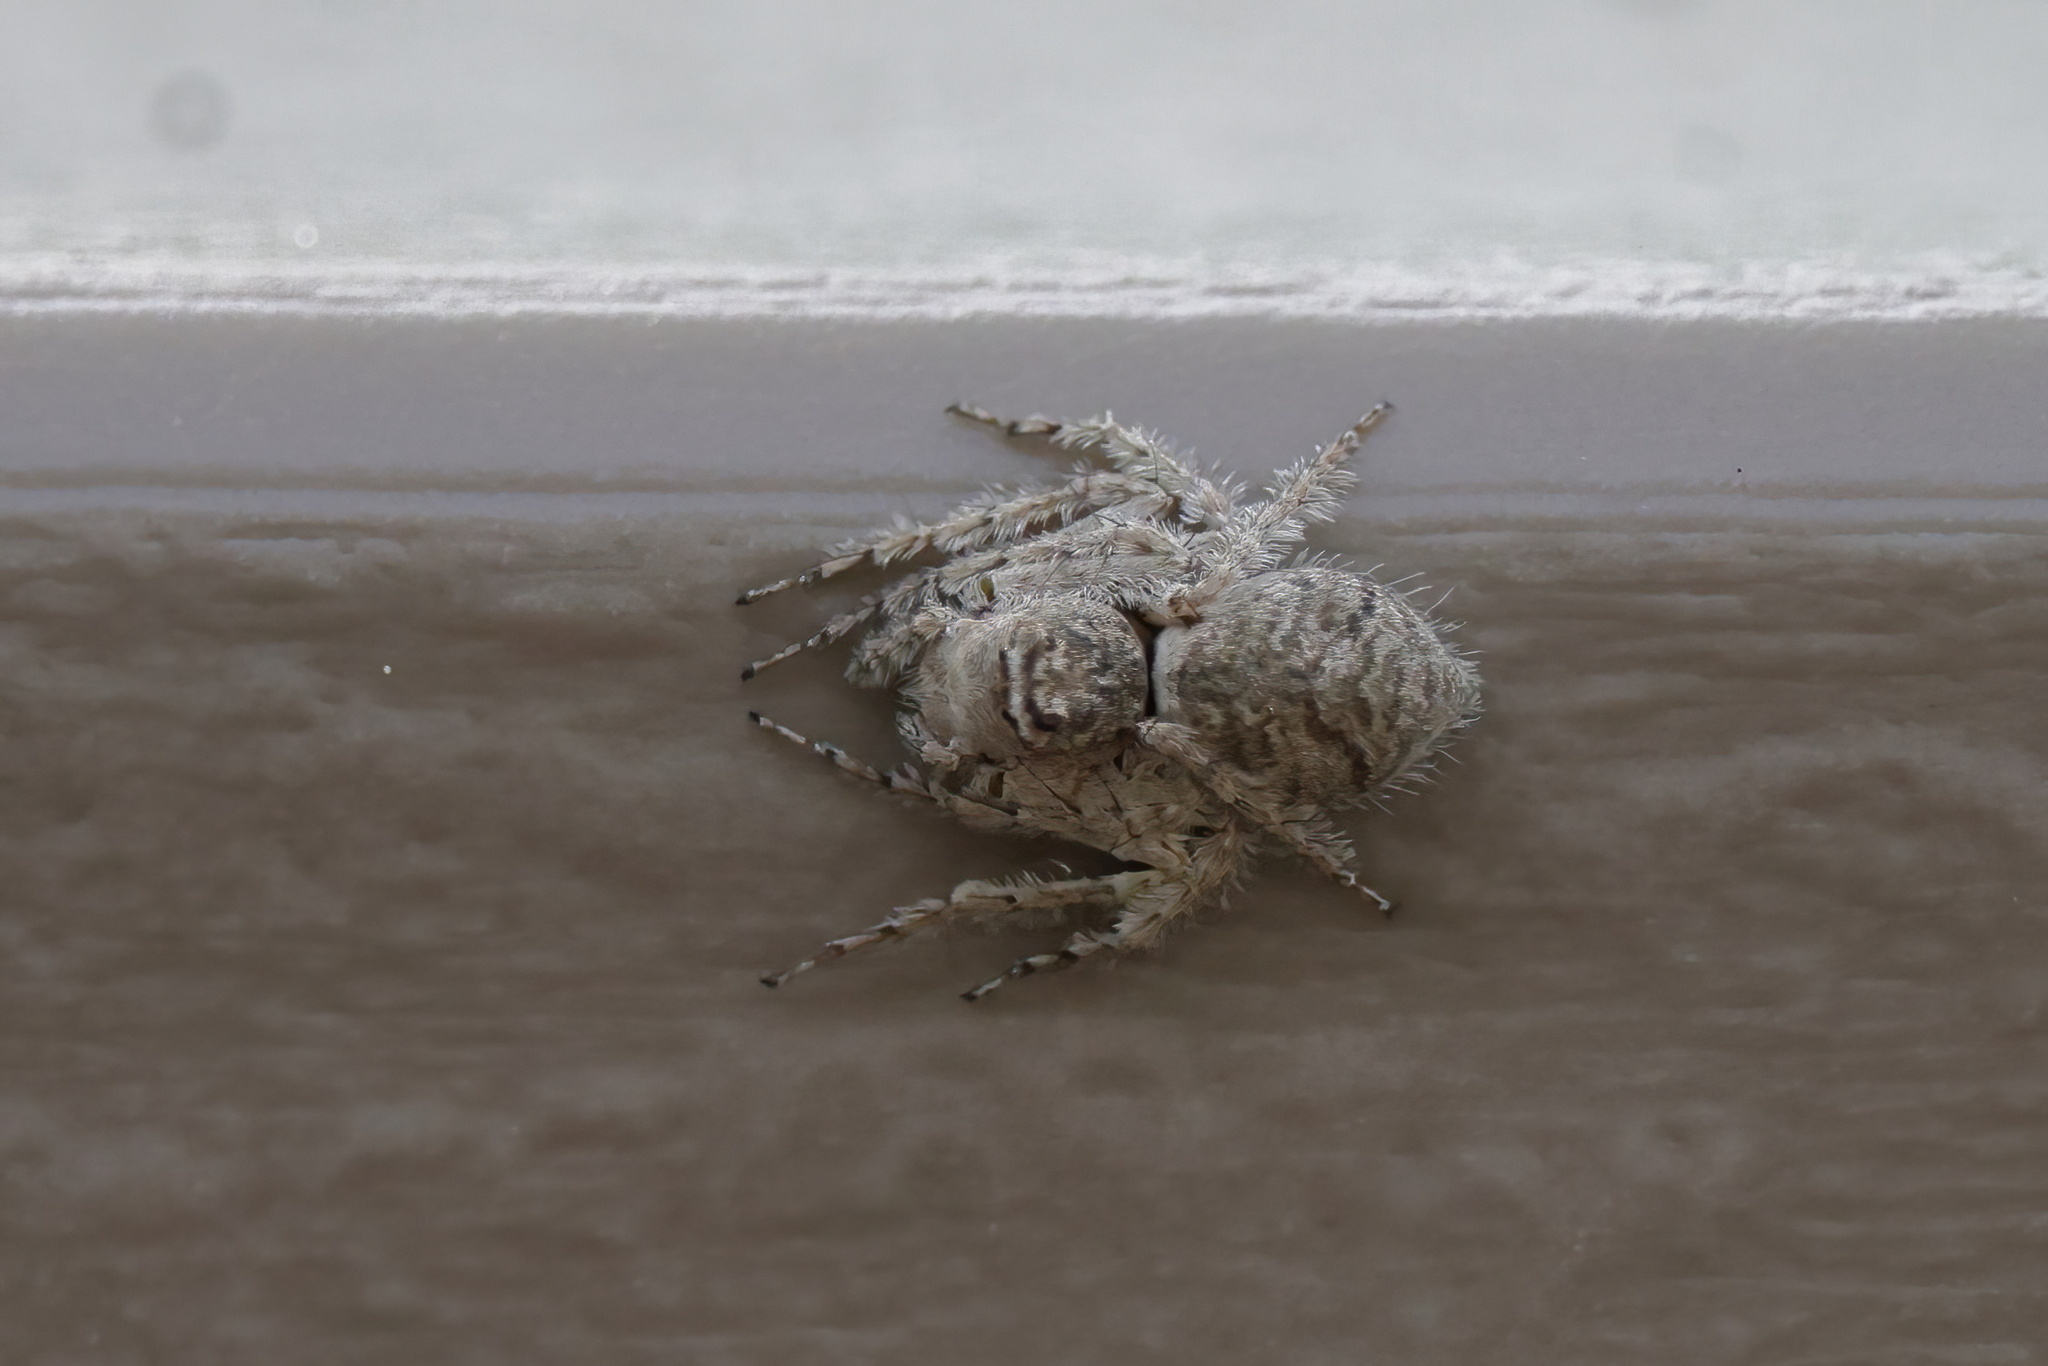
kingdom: Animalia
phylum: Arthropoda
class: Arachnida
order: Araneae
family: Oxyopidae
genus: Hamataliwa
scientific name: Hamataliwa grisea
